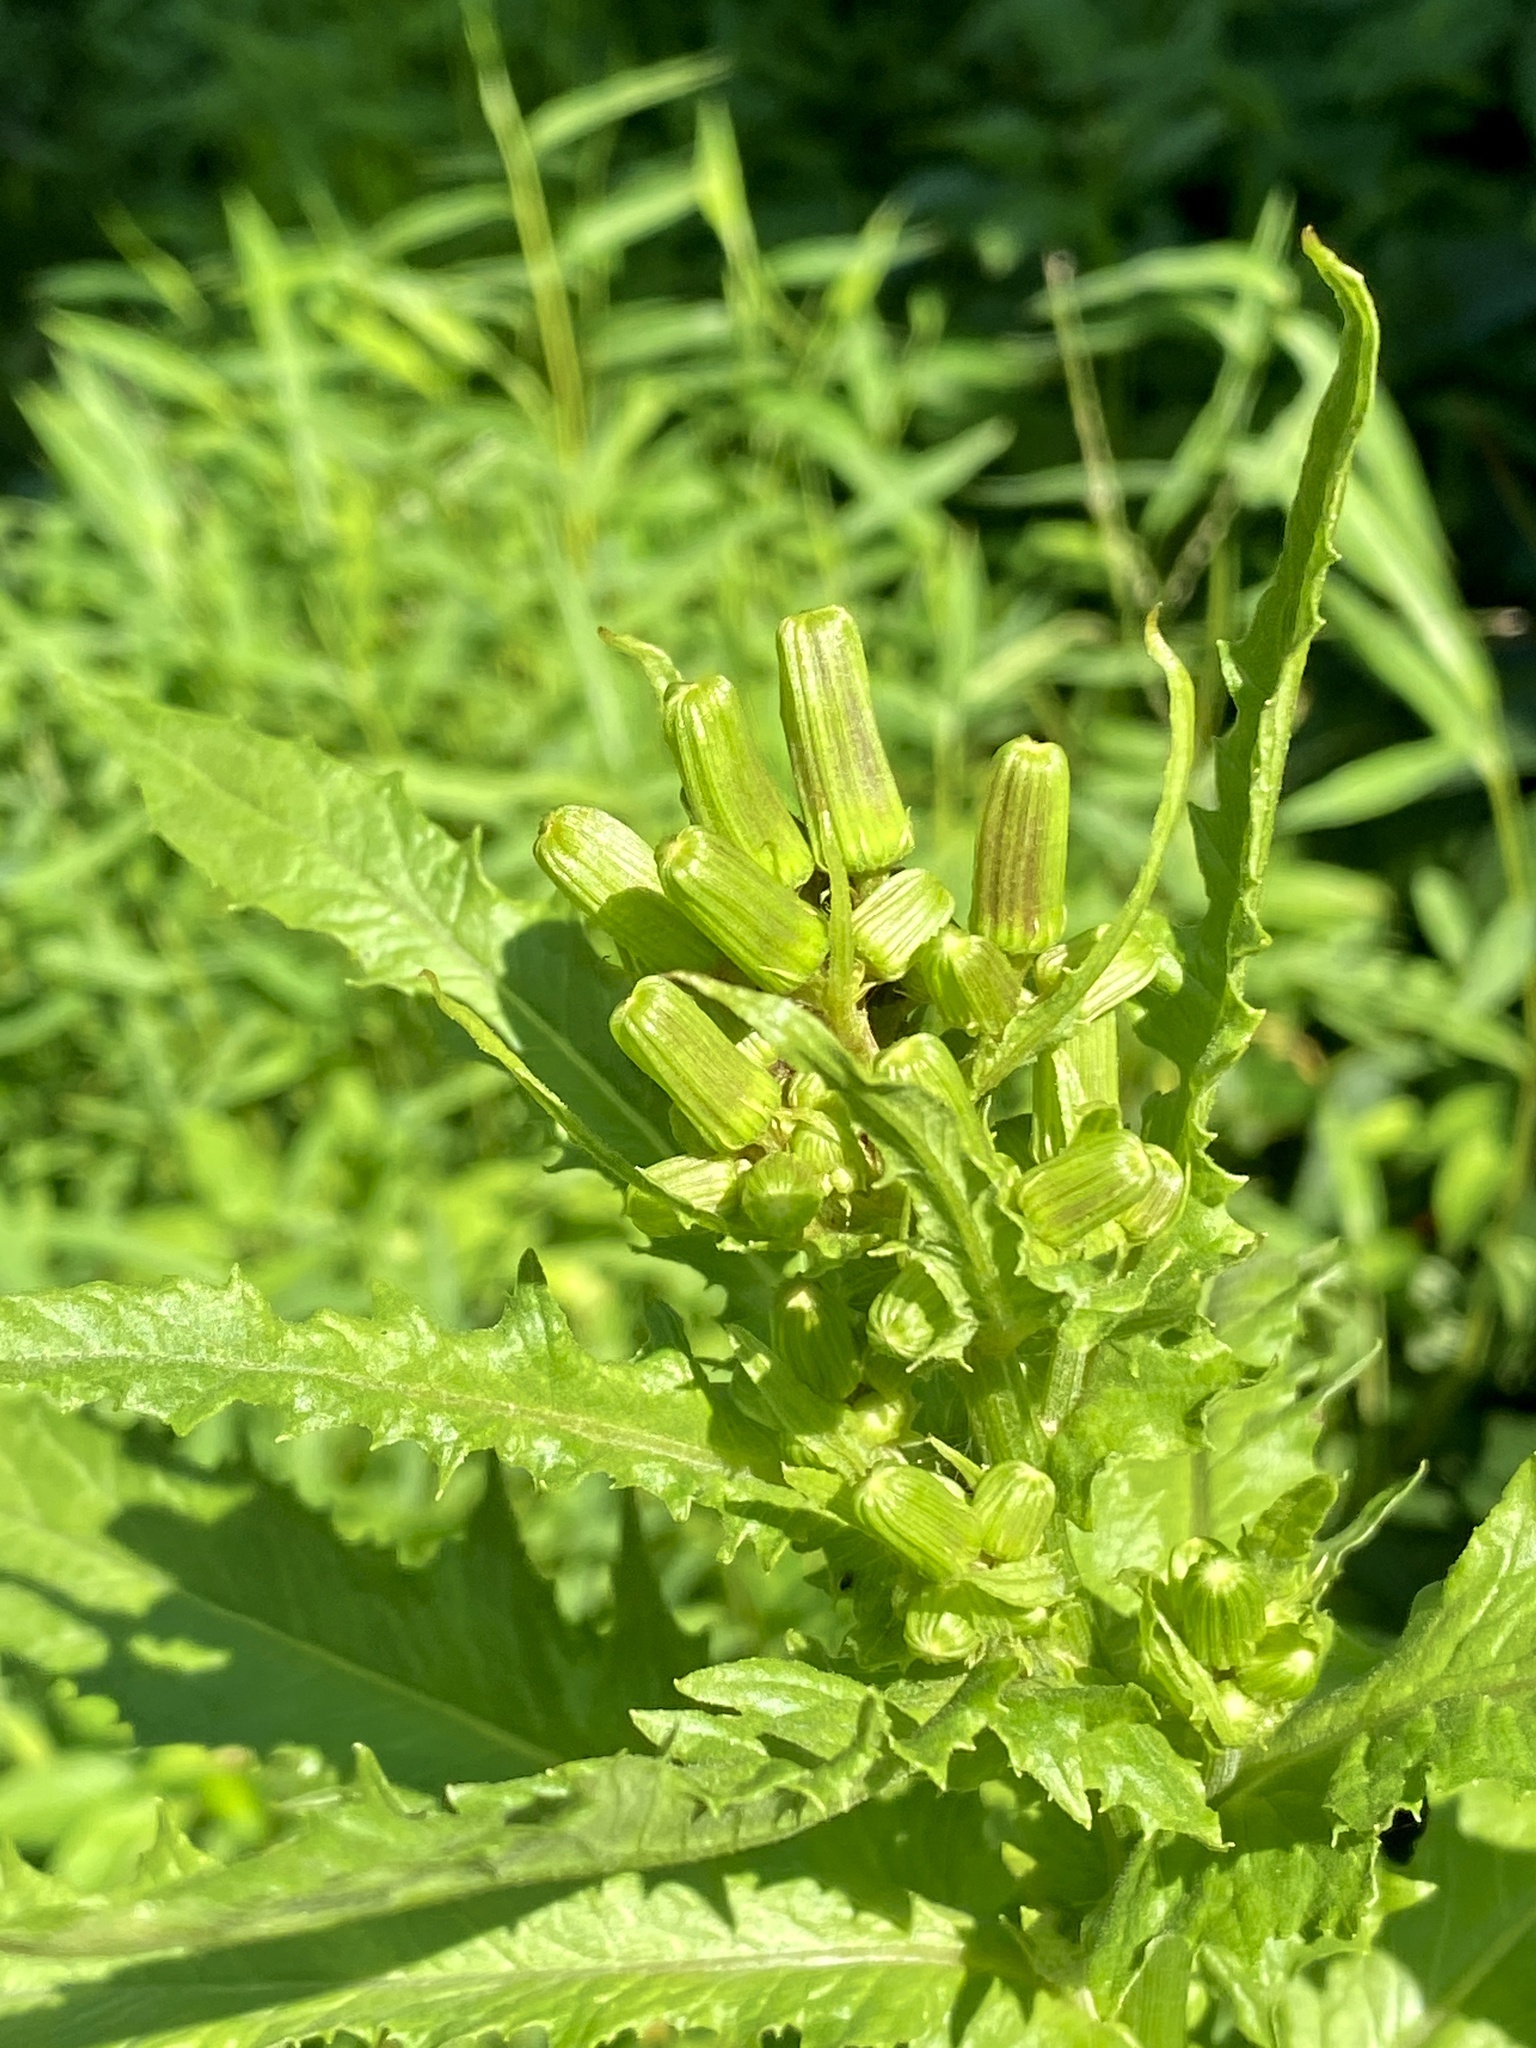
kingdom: Plantae
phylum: Tracheophyta
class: Magnoliopsida
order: Asterales
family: Asteraceae
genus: Erechtites
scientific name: Erechtites hieraciifolius
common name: American burnweed
